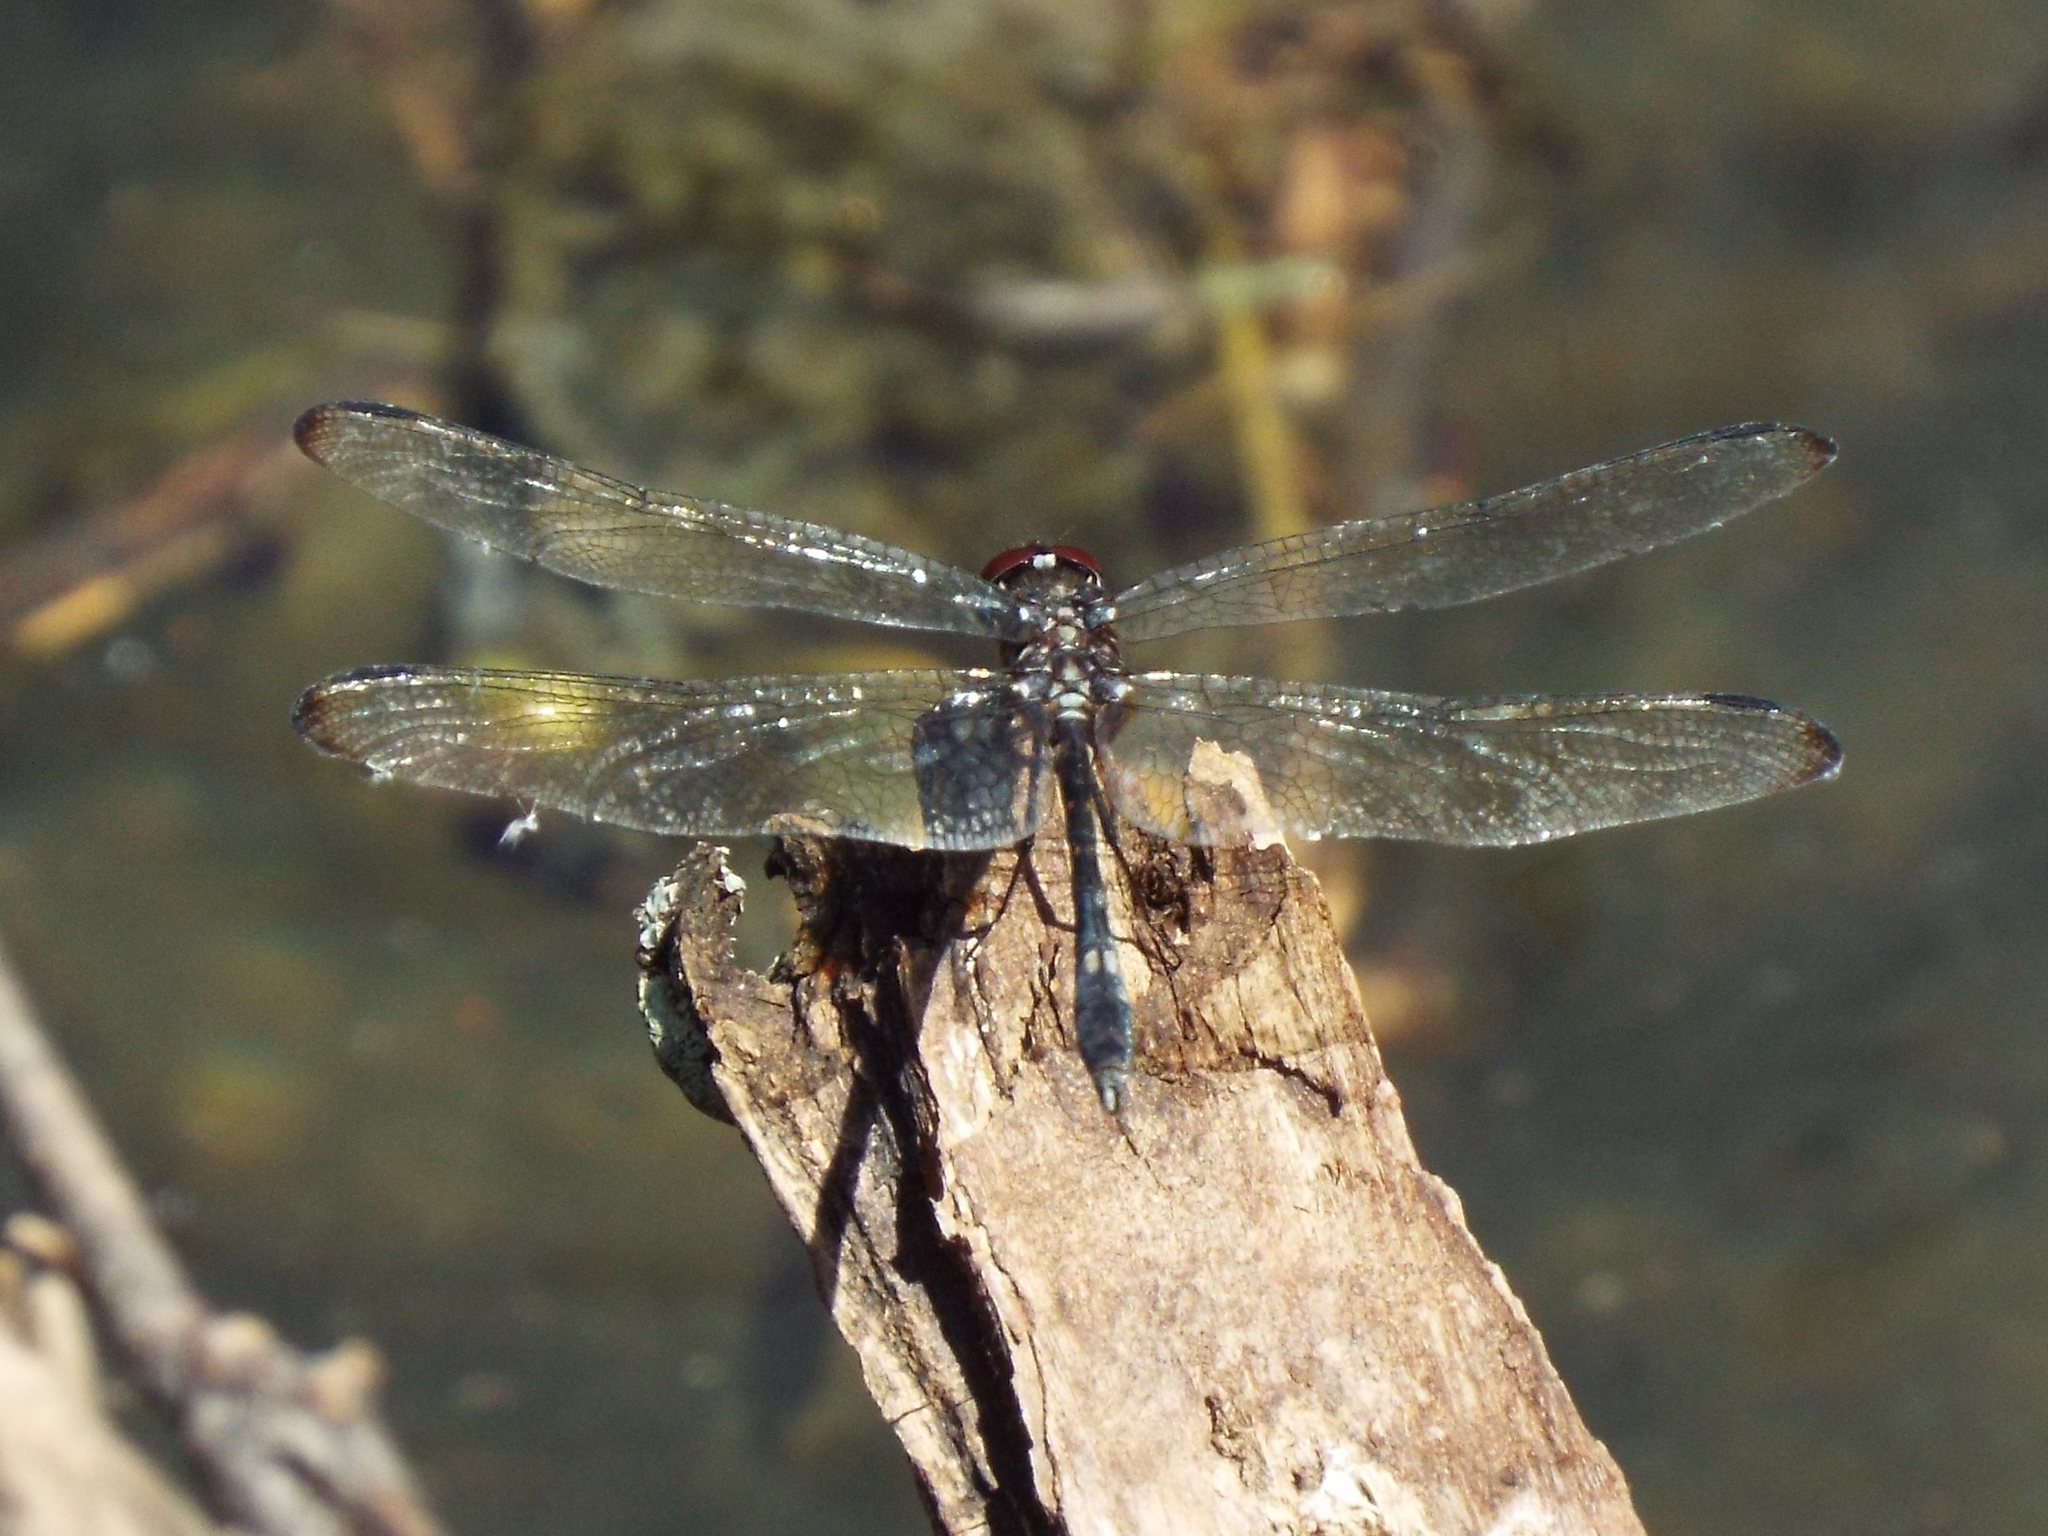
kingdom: Animalia
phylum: Arthropoda
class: Insecta
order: Odonata
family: Libellulidae
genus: Dythemis
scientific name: Dythemis velox
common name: Swift setwing
